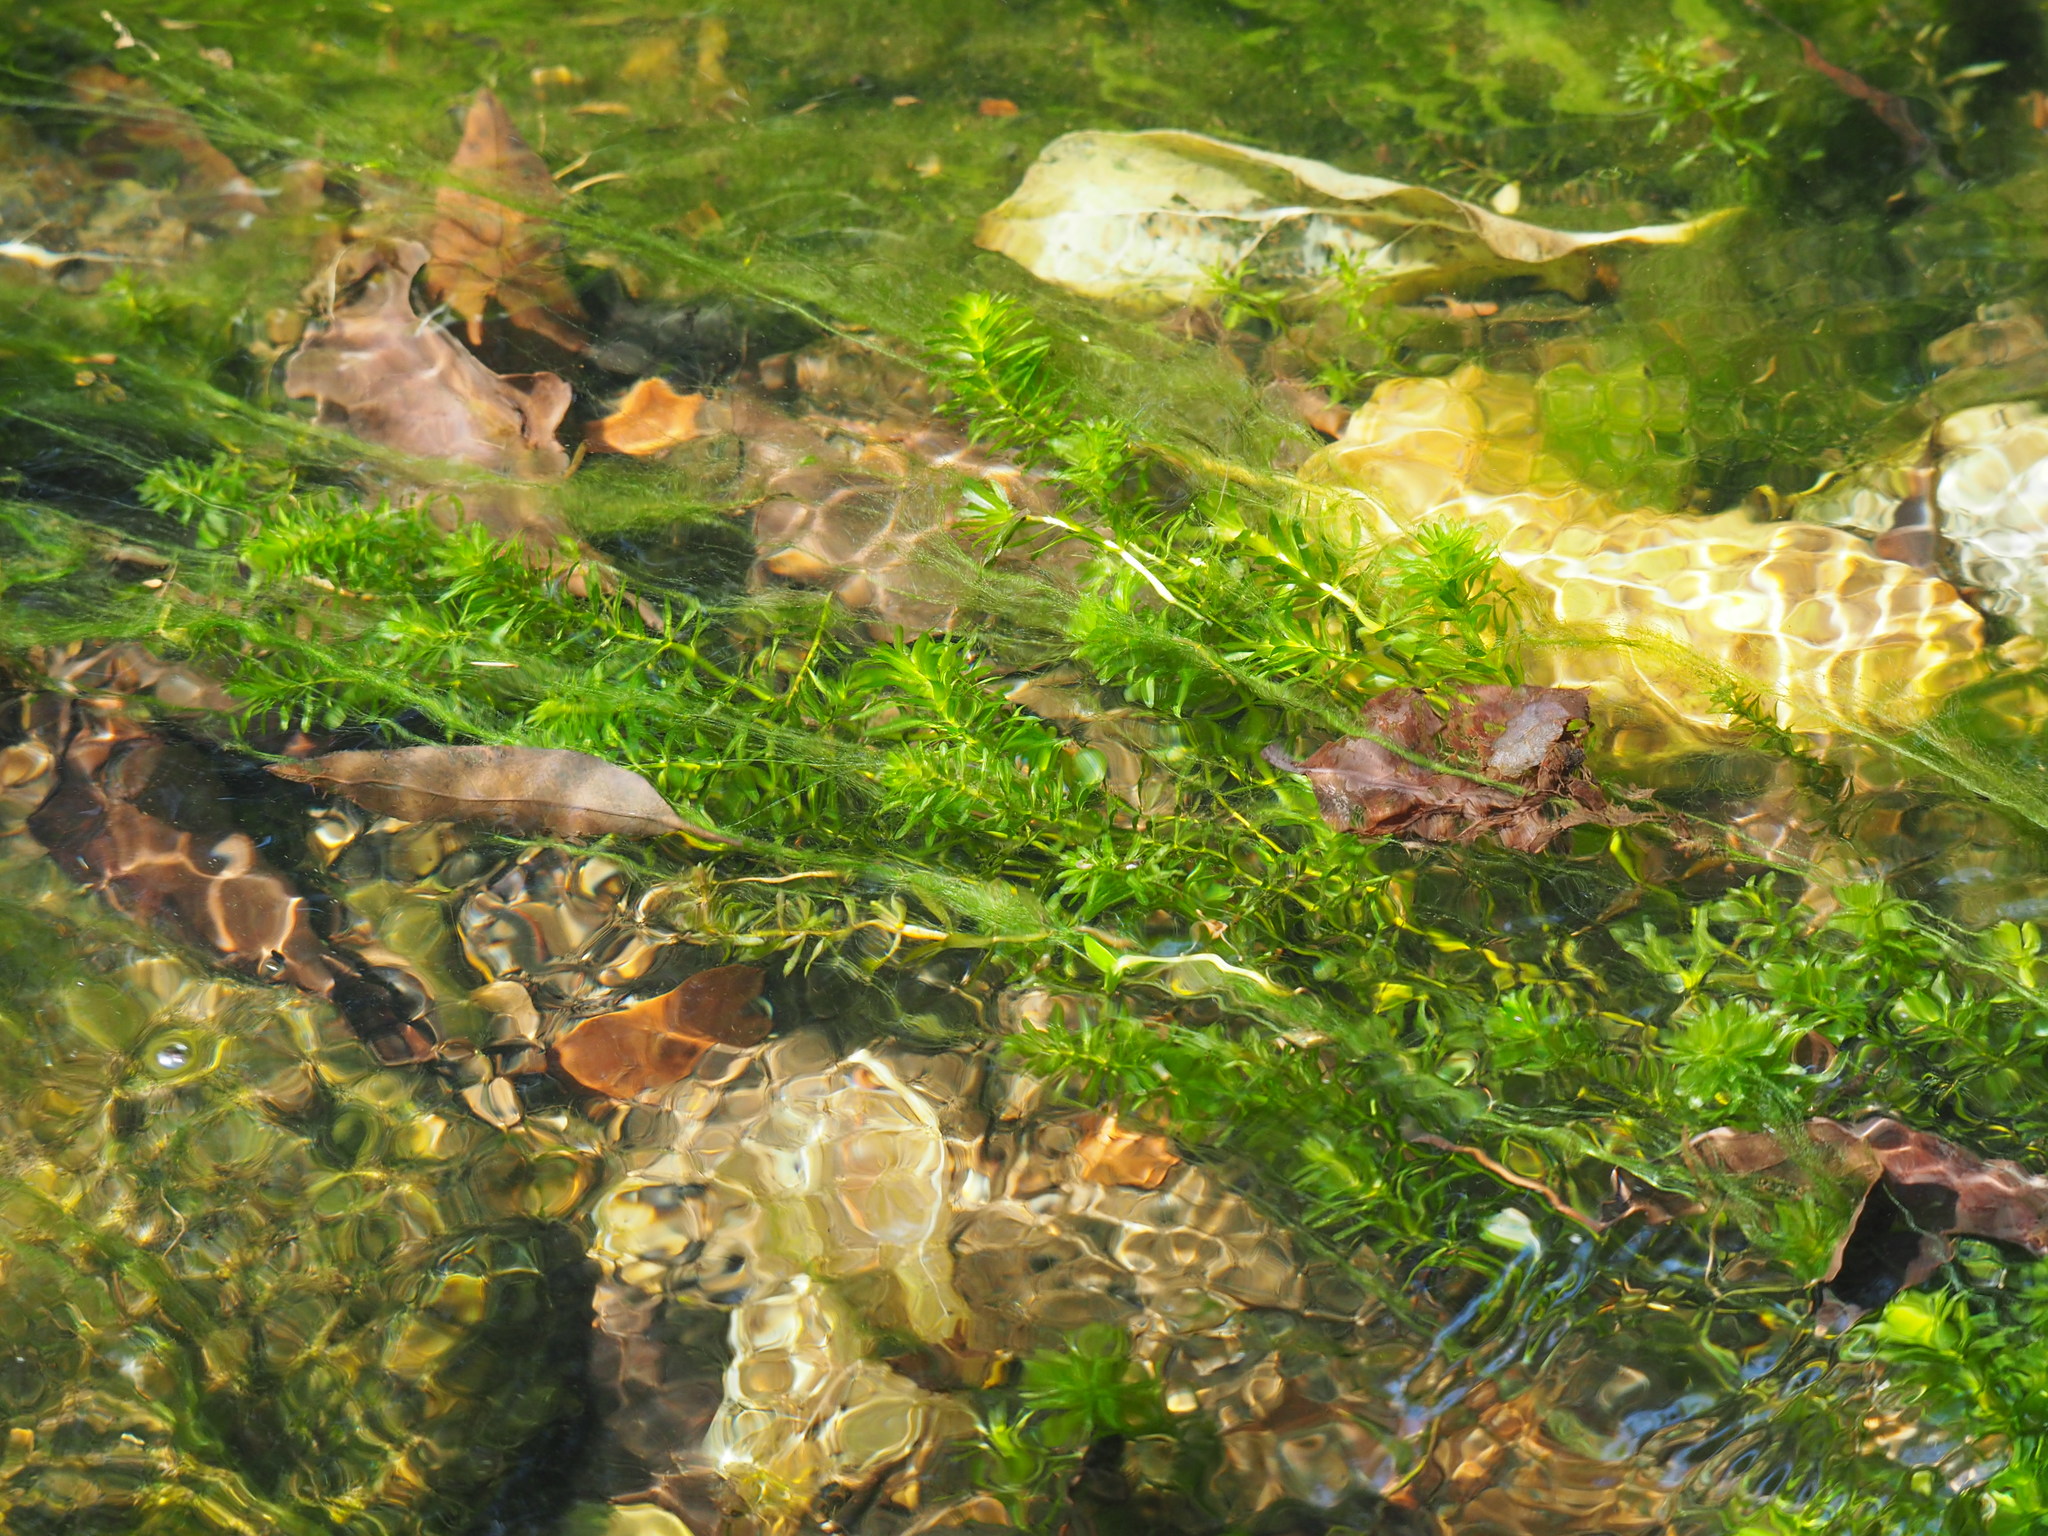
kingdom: Plantae
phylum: Tracheophyta
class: Liliopsida
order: Alismatales
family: Hydrocharitaceae
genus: Elodea
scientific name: Elodea densa
